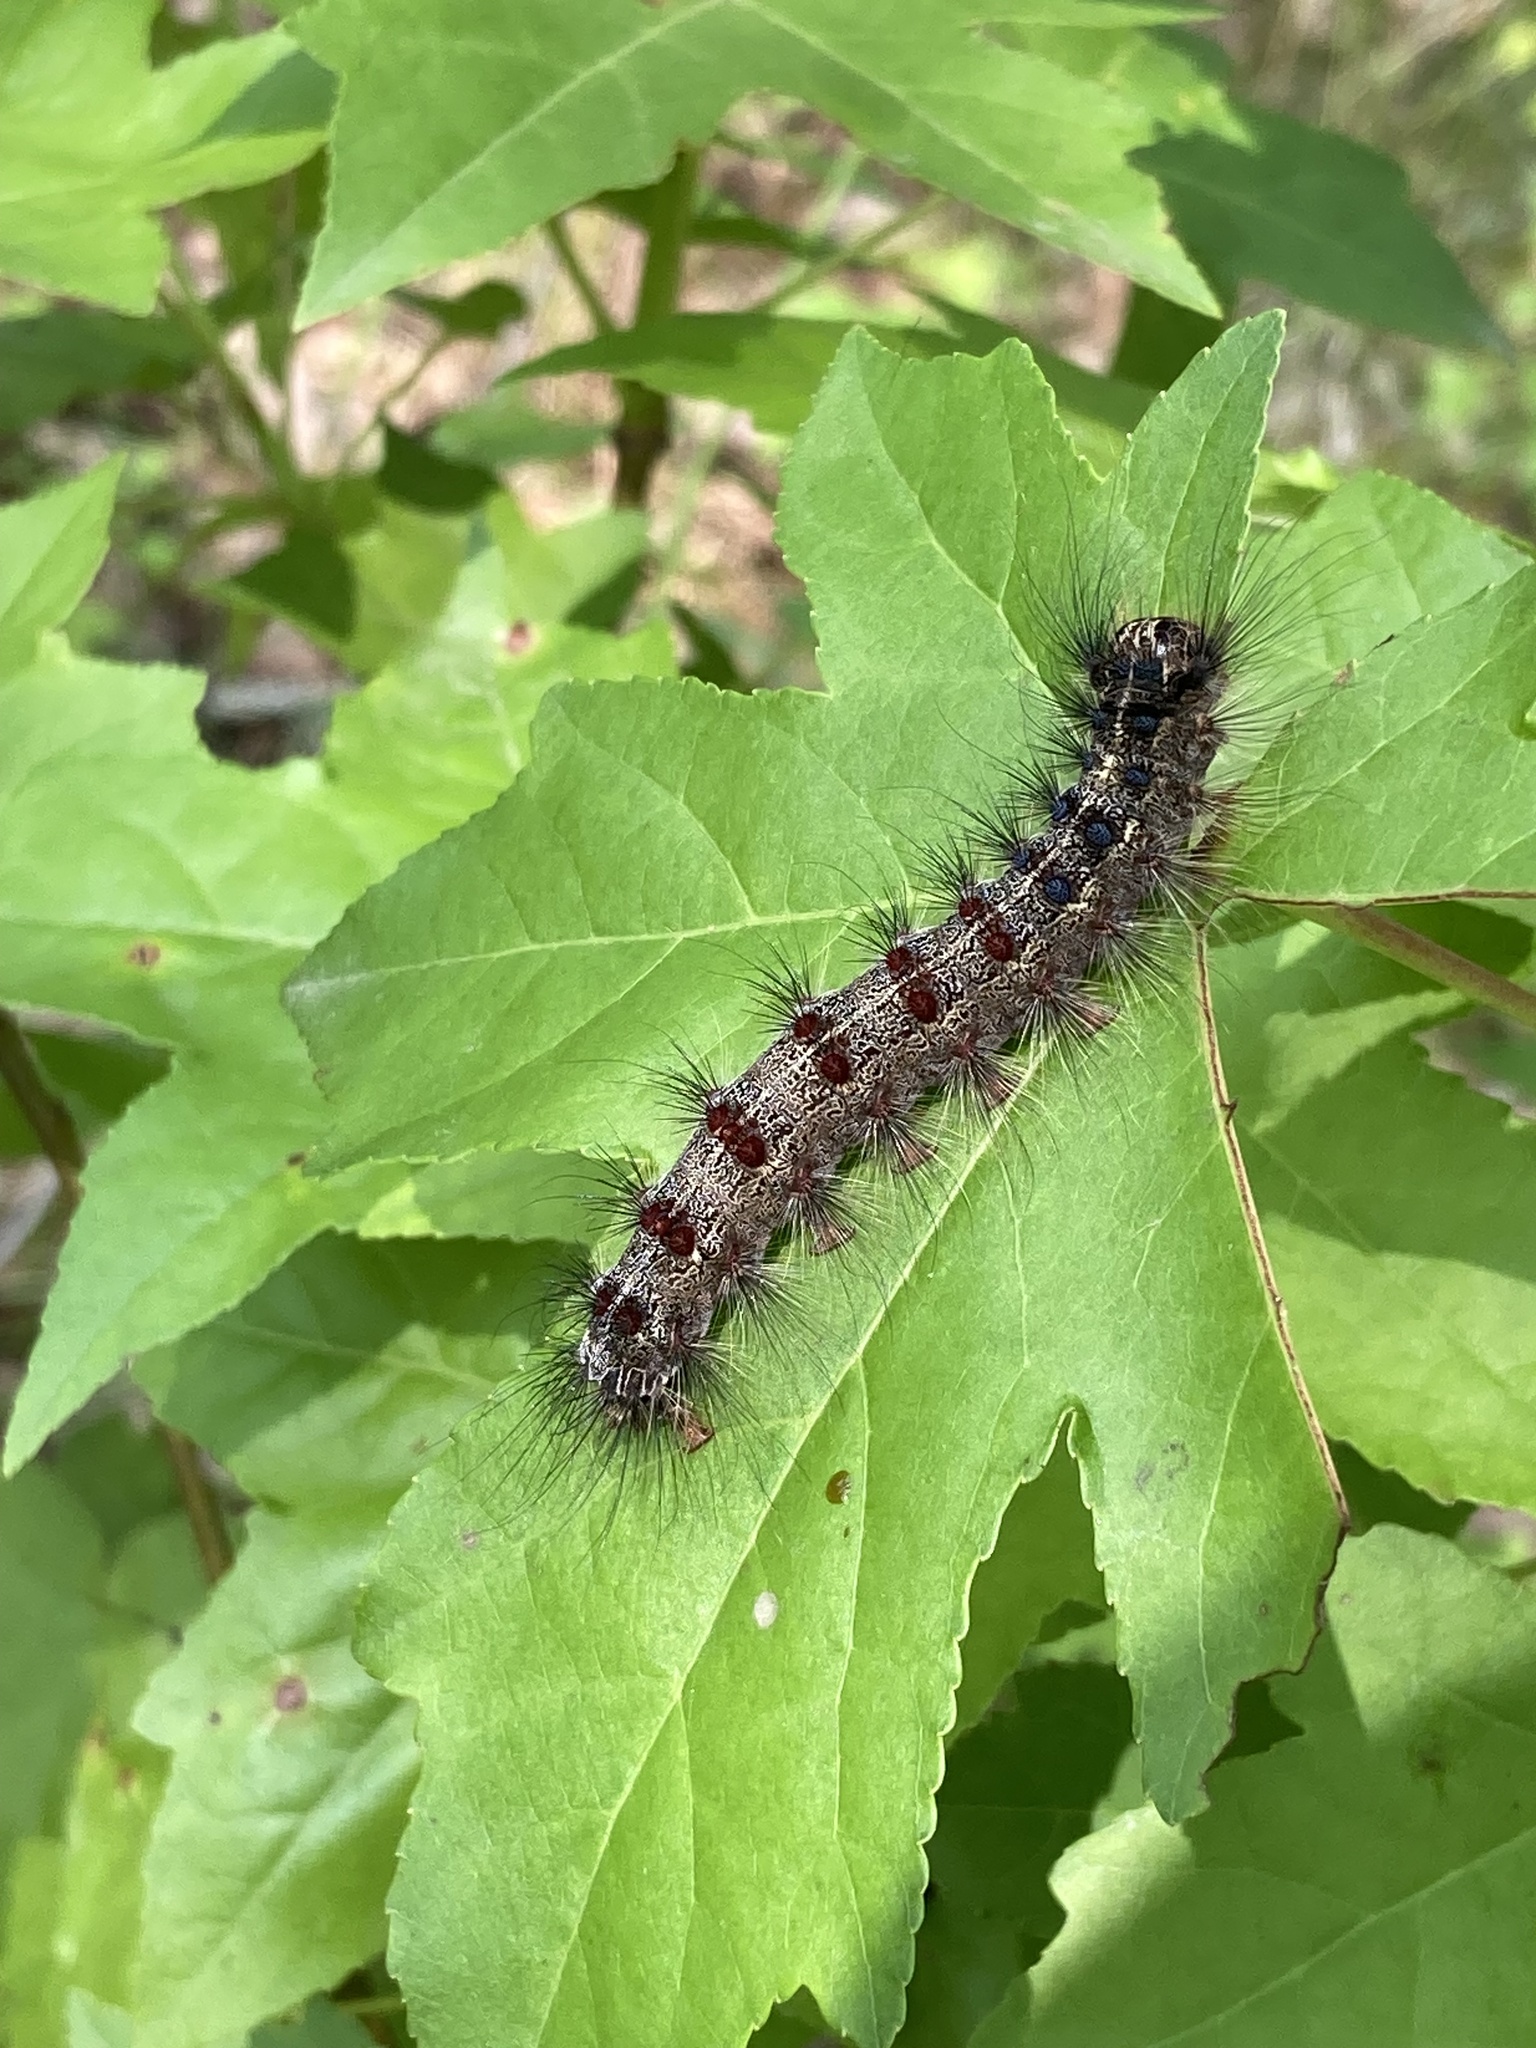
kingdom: Animalia
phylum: Arthropoda
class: Insecta
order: Lepidoptera
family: Erebidae
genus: Lymantria
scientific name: Lymantria dispar
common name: Gypsy moth
